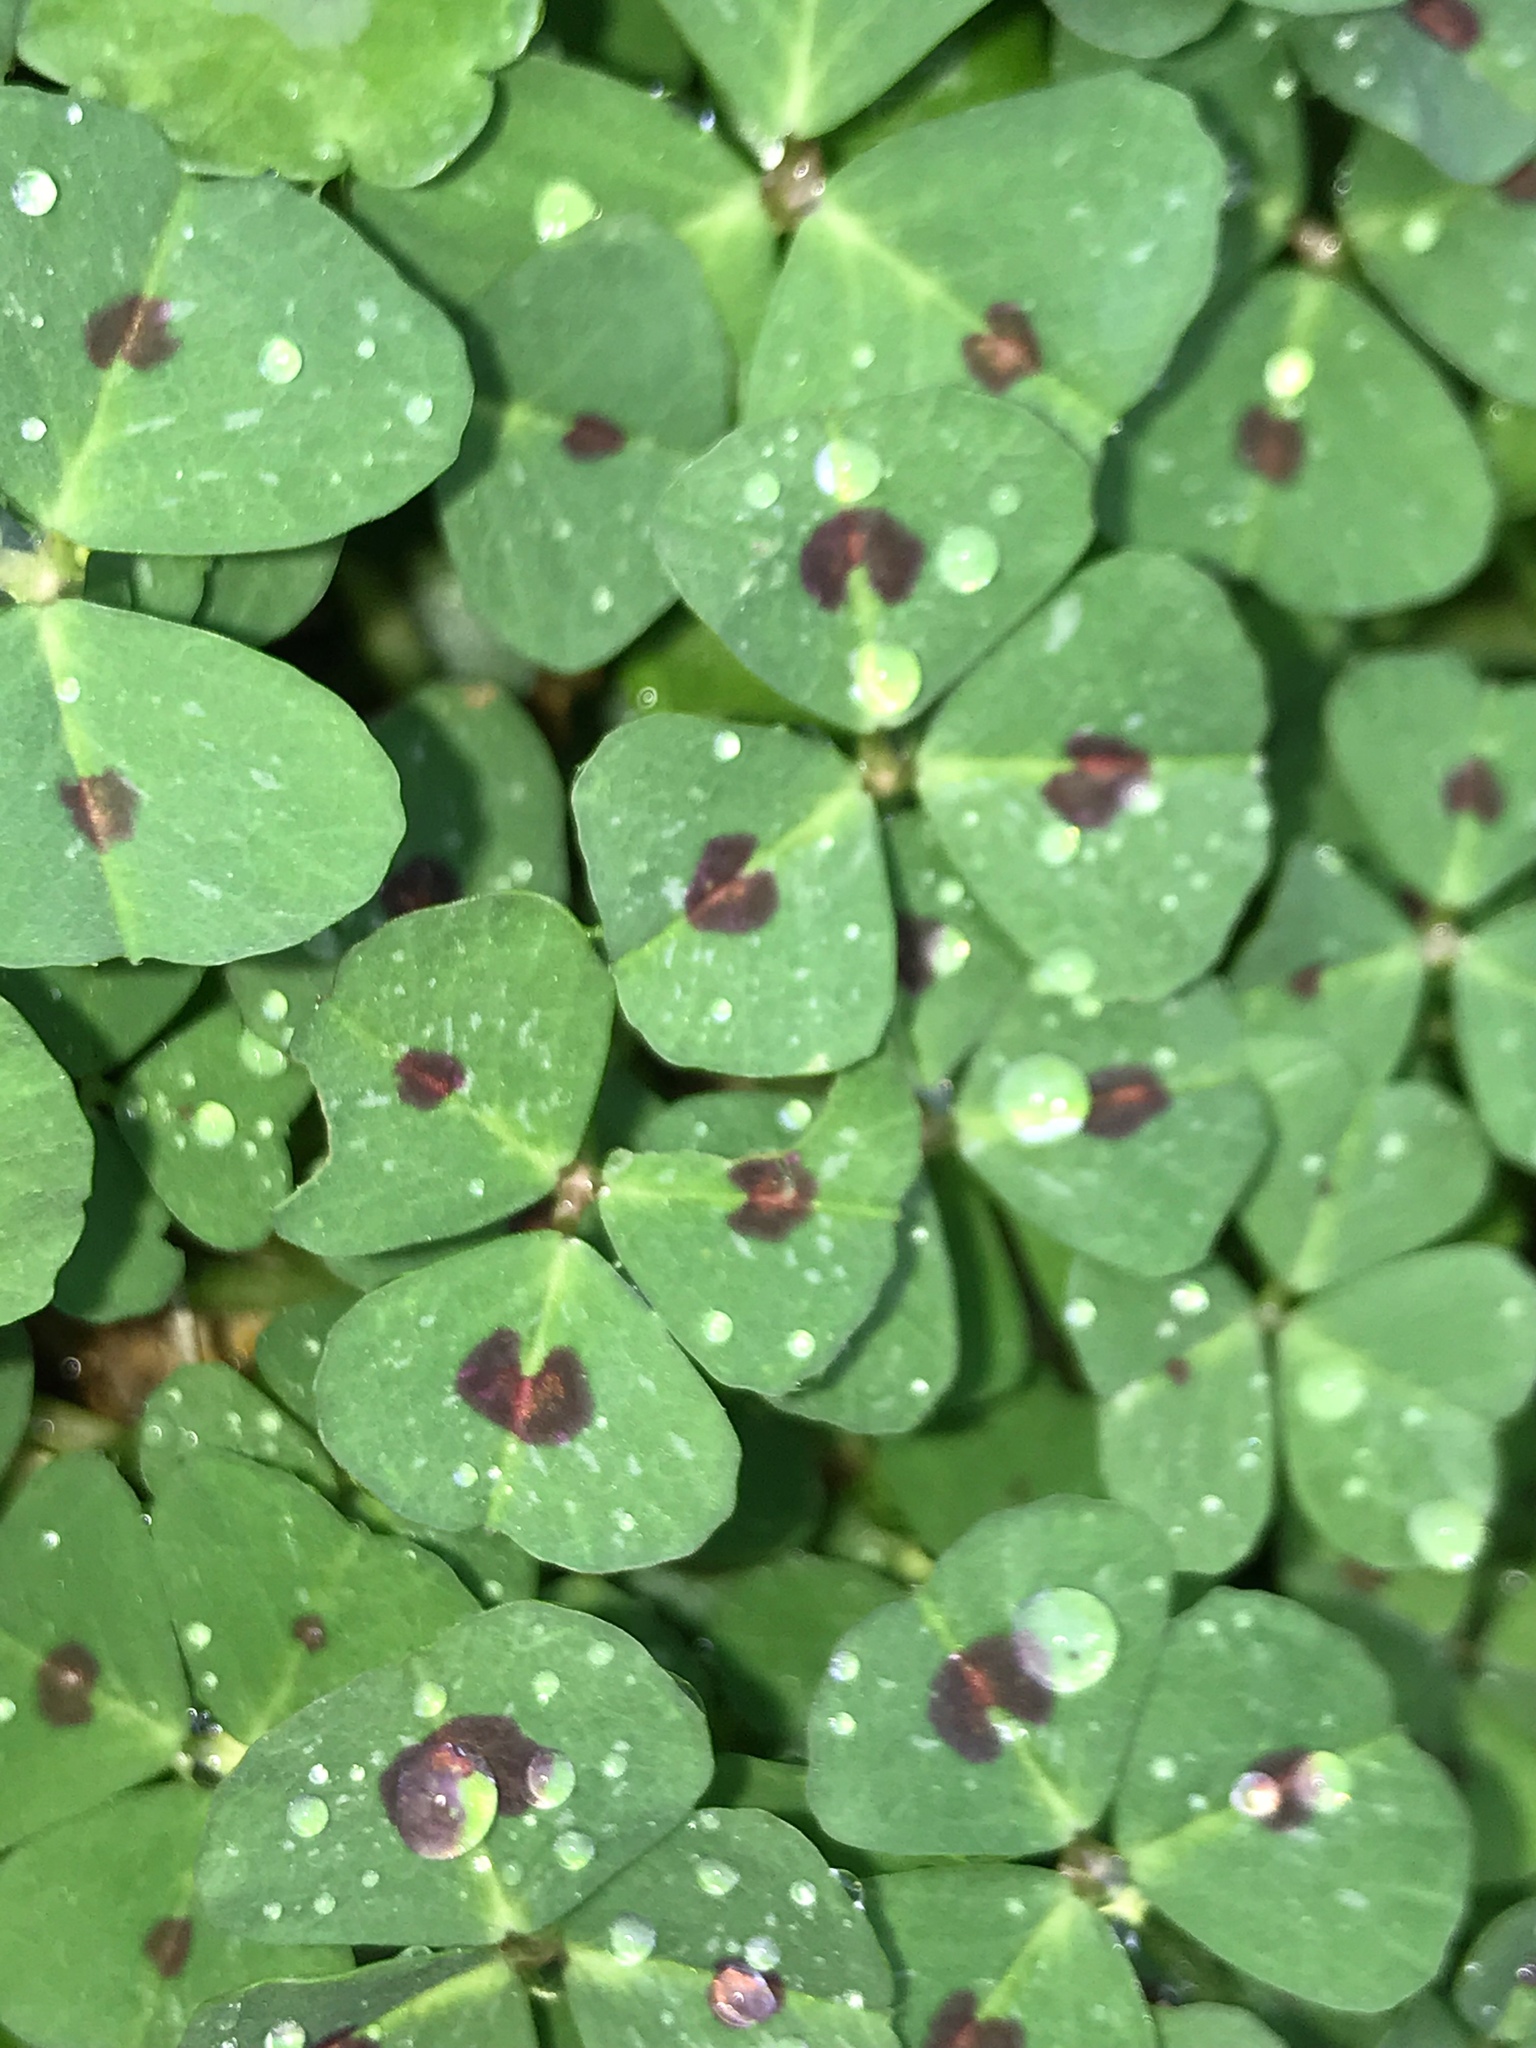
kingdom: Plantae
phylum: Tracheophyta
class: Magnoliopsida
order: Fabales
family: Fabaceae
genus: Medicago
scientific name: Medicago arabica
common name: Spotted medick
